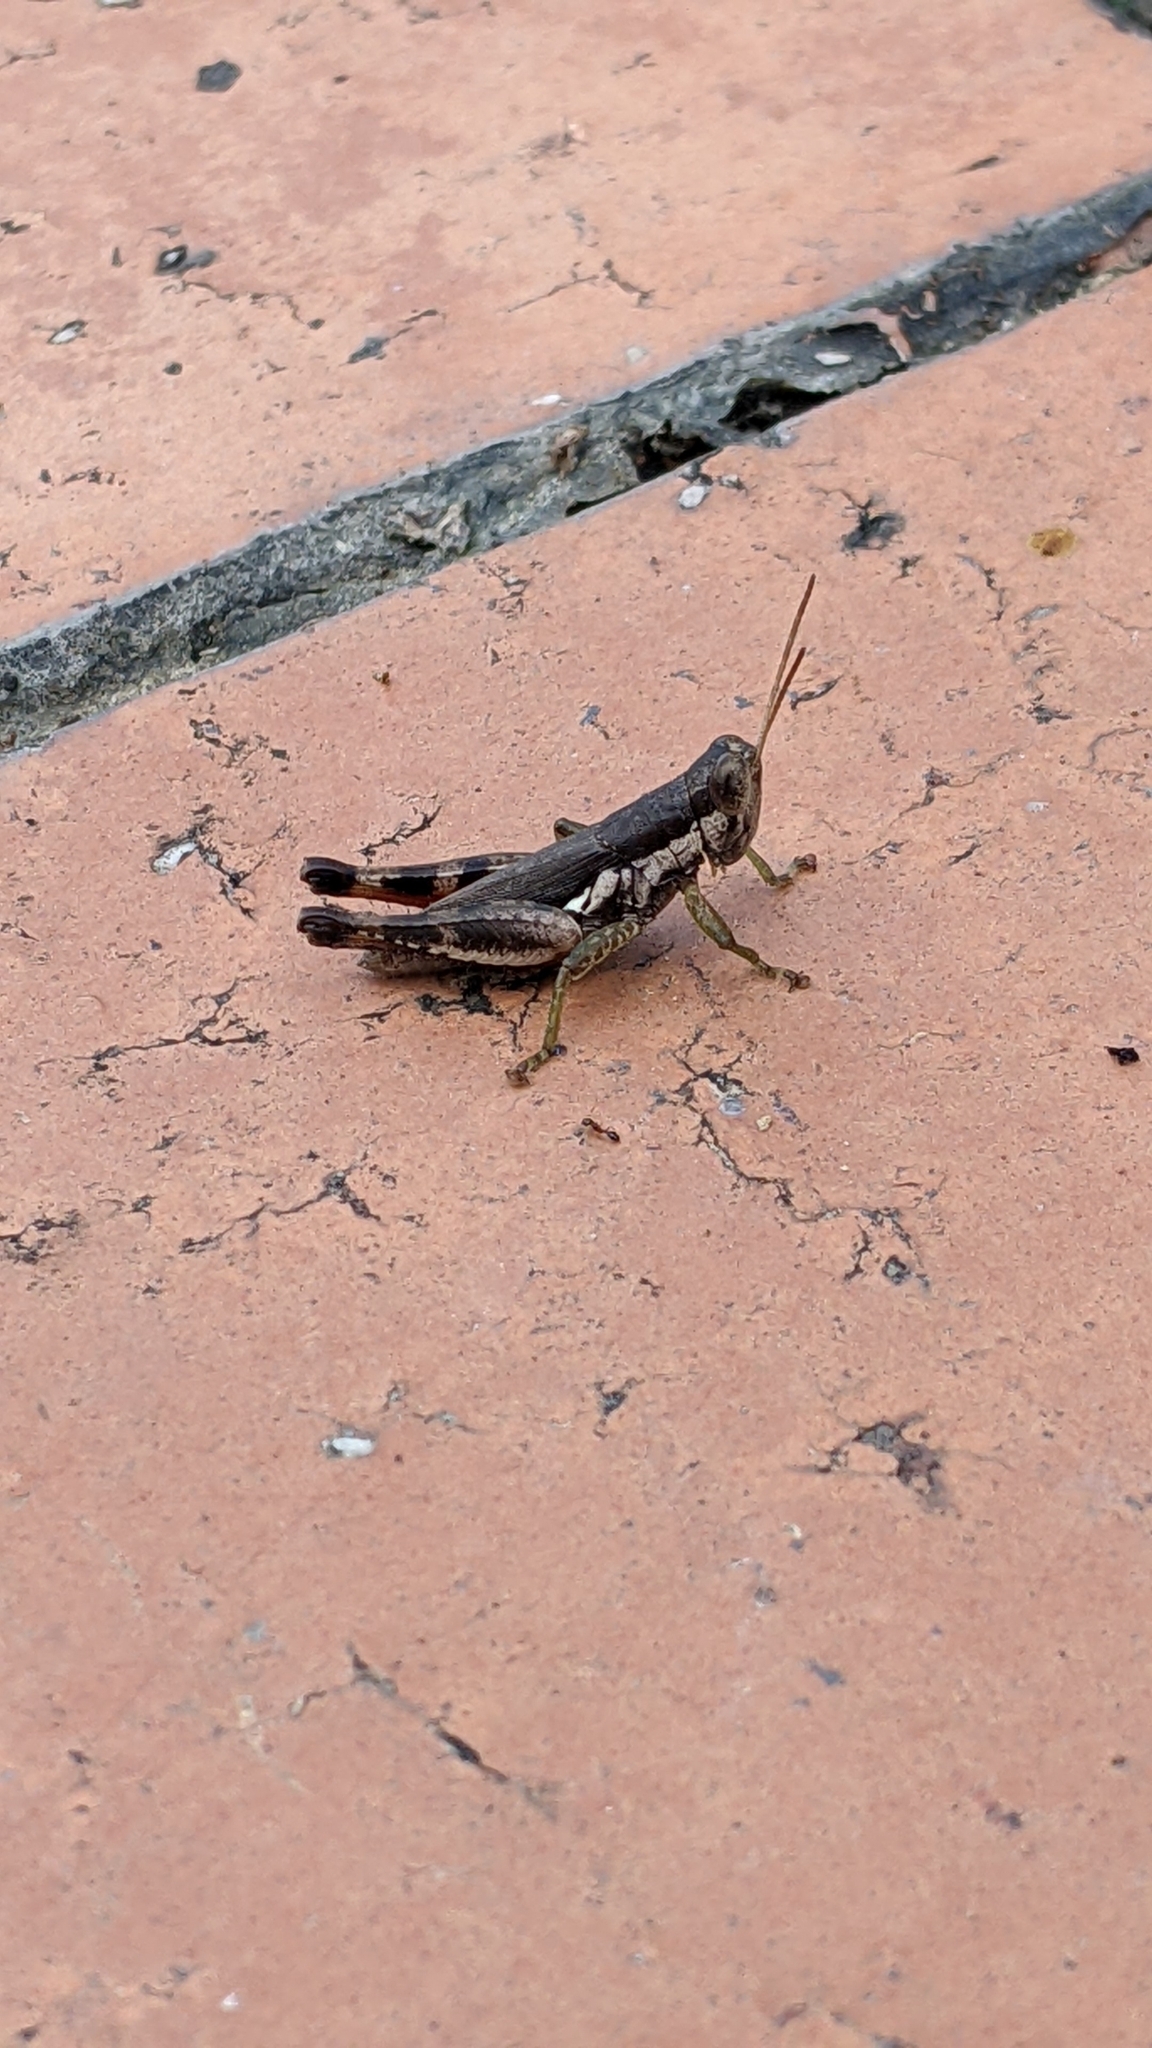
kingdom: Animalia
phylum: Arthropoda
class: Insecta
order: Orthoptera
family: Acrididae
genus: Pseudoxya
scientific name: Pseudoxya diminuta
